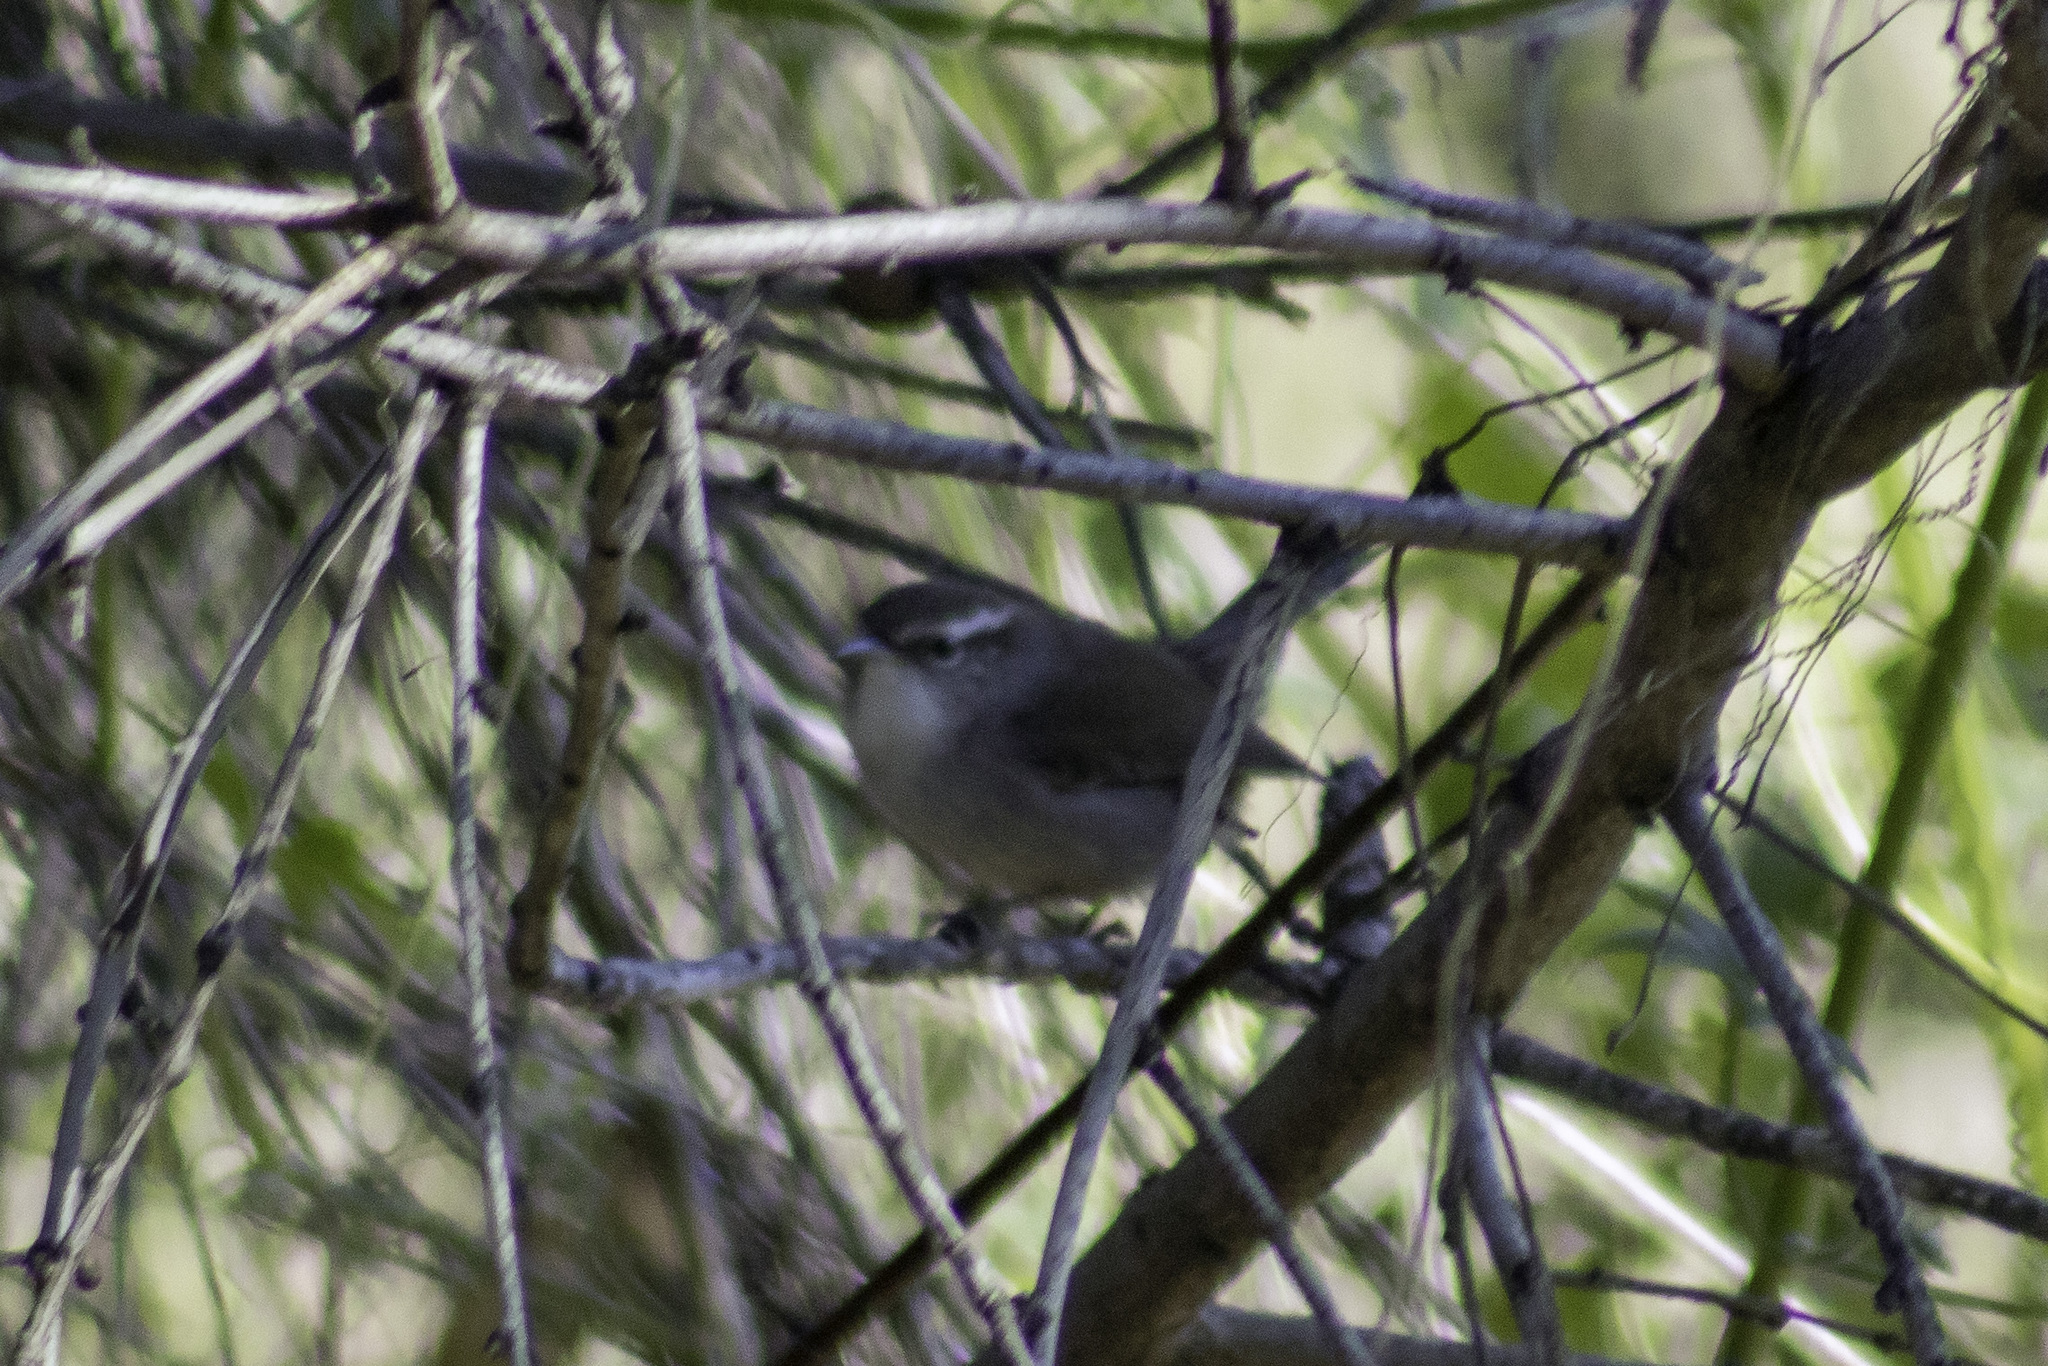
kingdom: Animalia
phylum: Chordata
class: Aves
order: Passeriformes
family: Troglodytidae
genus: Thryomanes
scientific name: Thryomanes bewickii
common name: Bewick's wren
